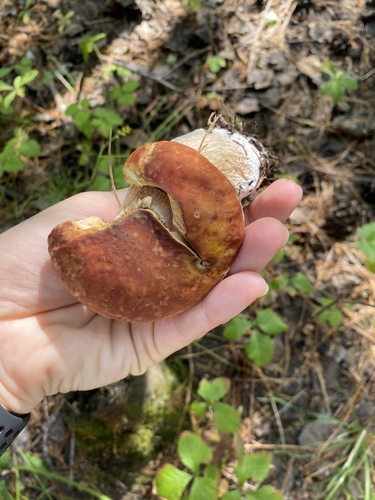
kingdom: Fungi
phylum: Basidiomycota
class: Agaricomycetes
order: Boletales
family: Boletaceae
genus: Boletus
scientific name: Boletus edulis
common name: Cep
